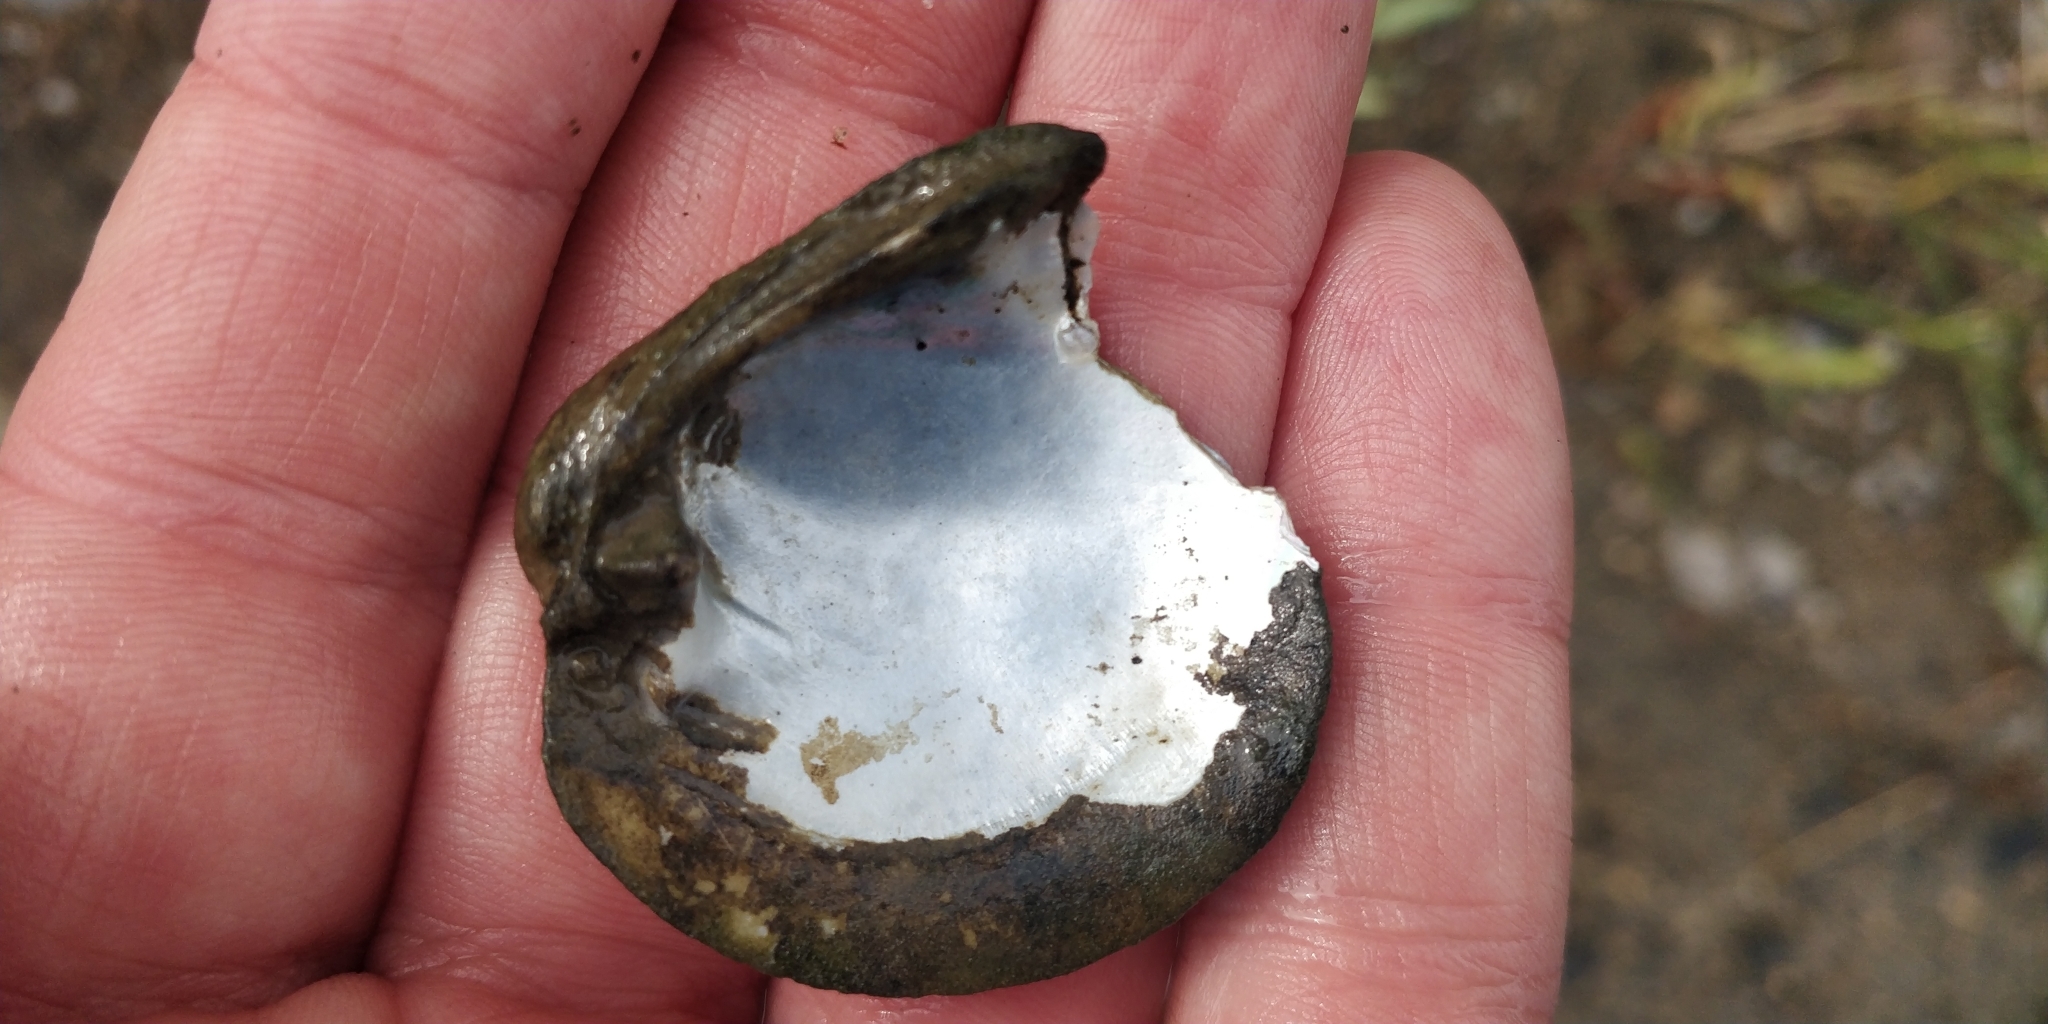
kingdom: Animalia
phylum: Mollusca
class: Bivalvia
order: Unionida
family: Unionidae
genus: Obovaria
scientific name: Obovaria olivaria
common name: Hickorynut
